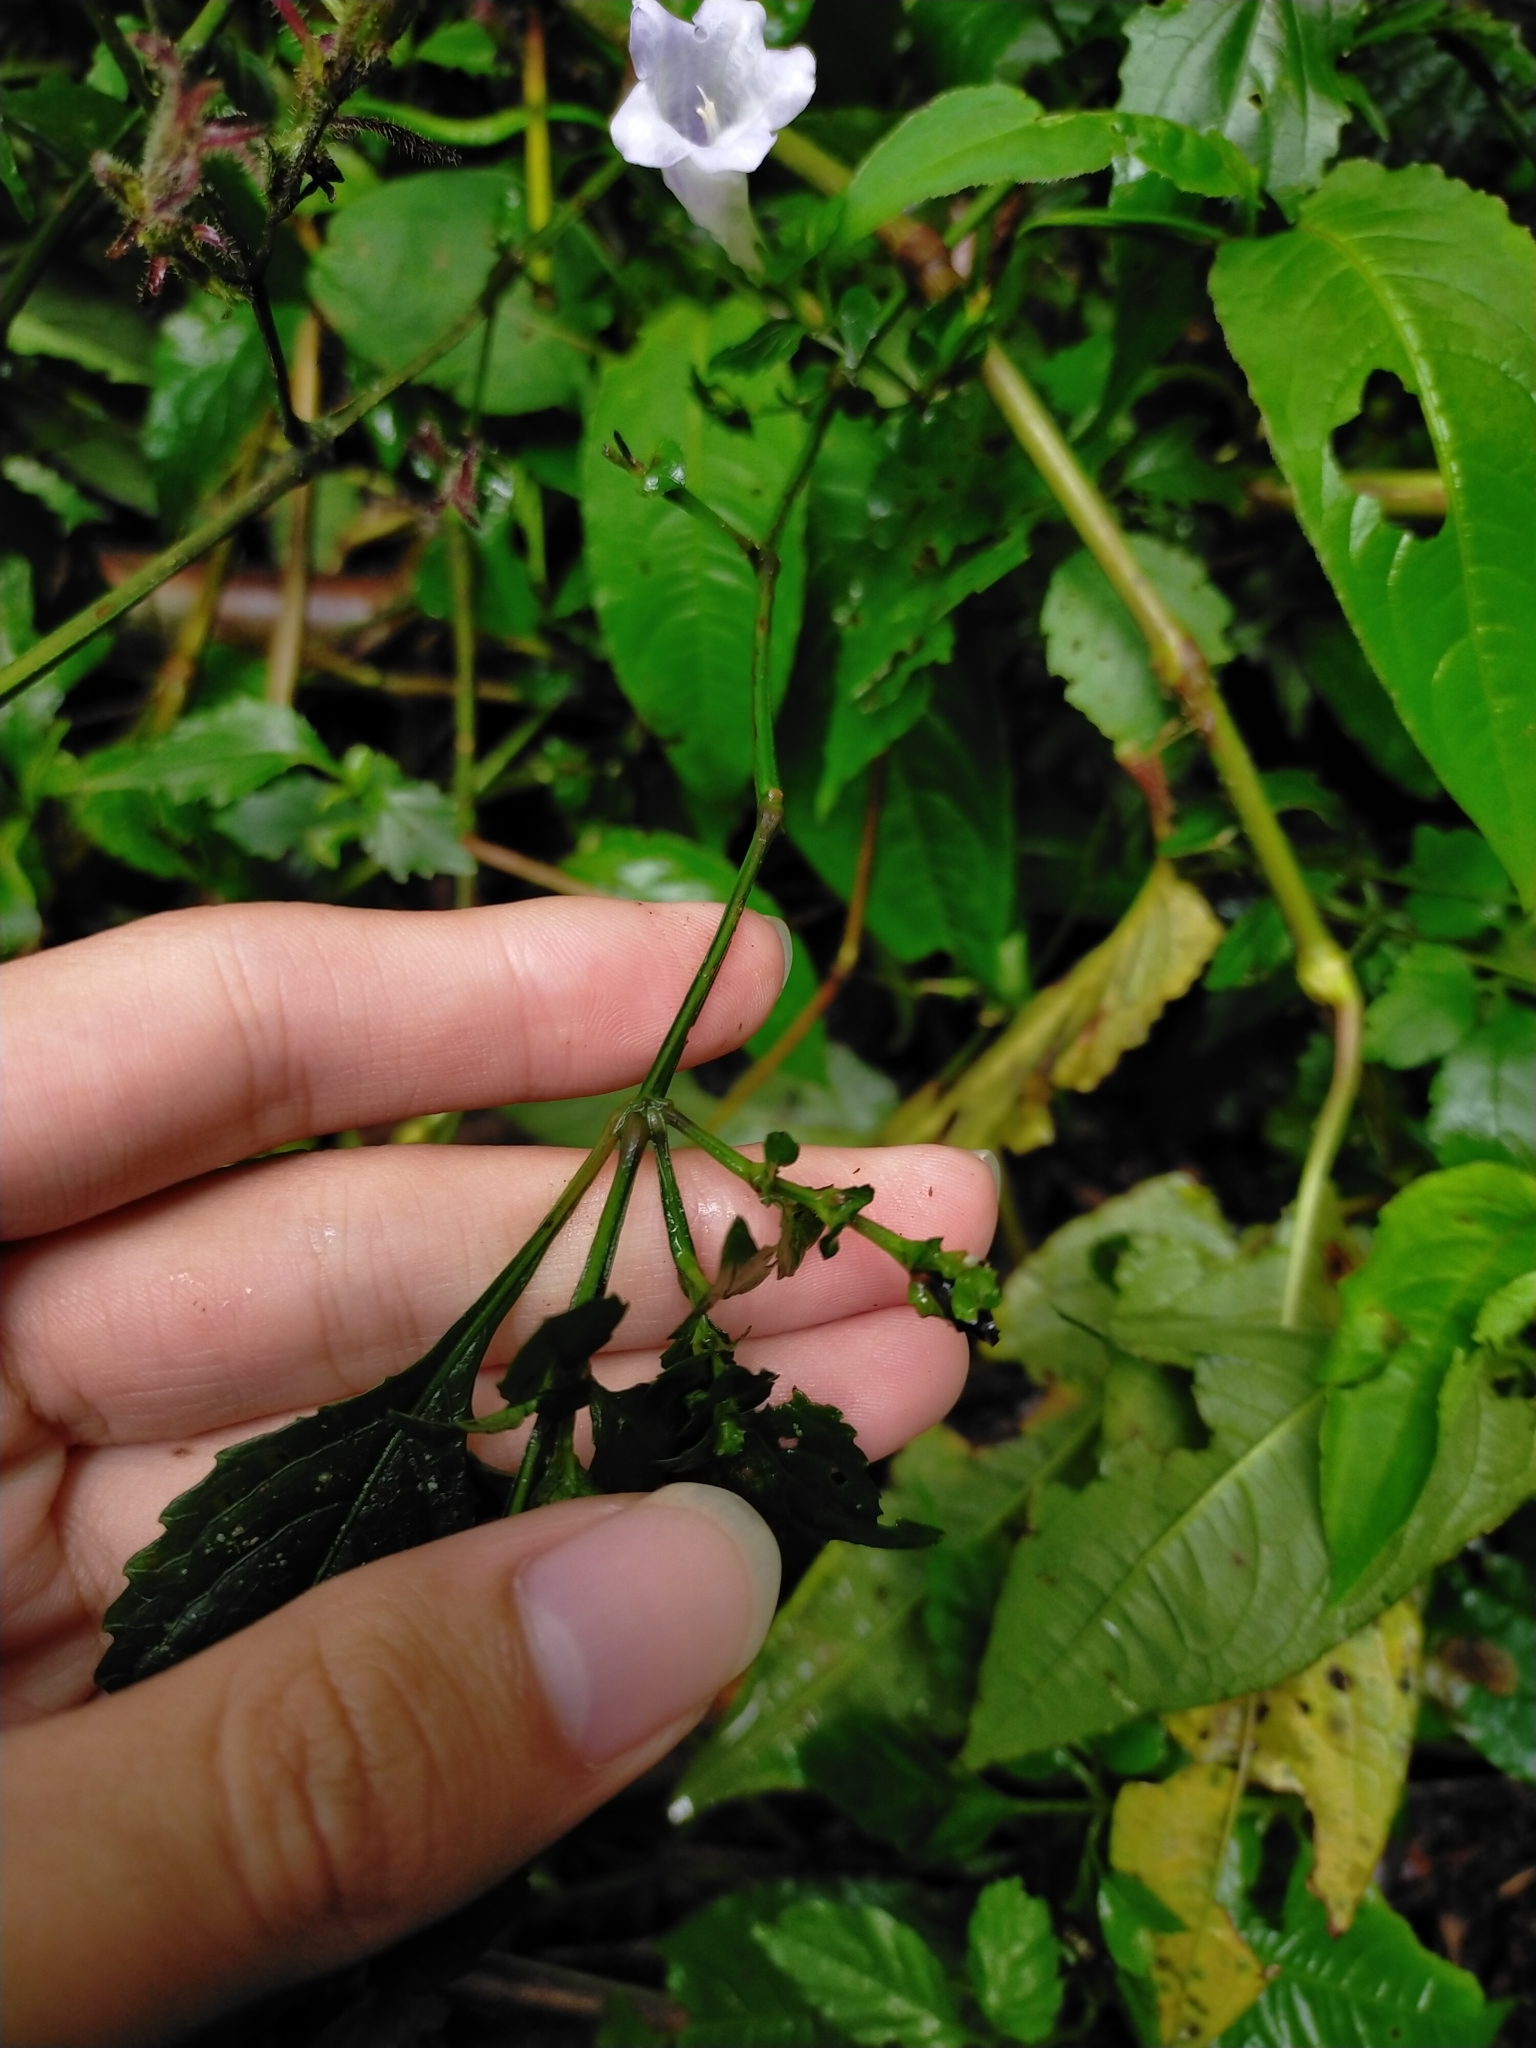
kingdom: Plantae
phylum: Tracheophyta
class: Magnoliopsida
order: Lamiales
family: Acanthaceae
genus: Strobilanthes
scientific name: Strobilanthes flexicaulis
